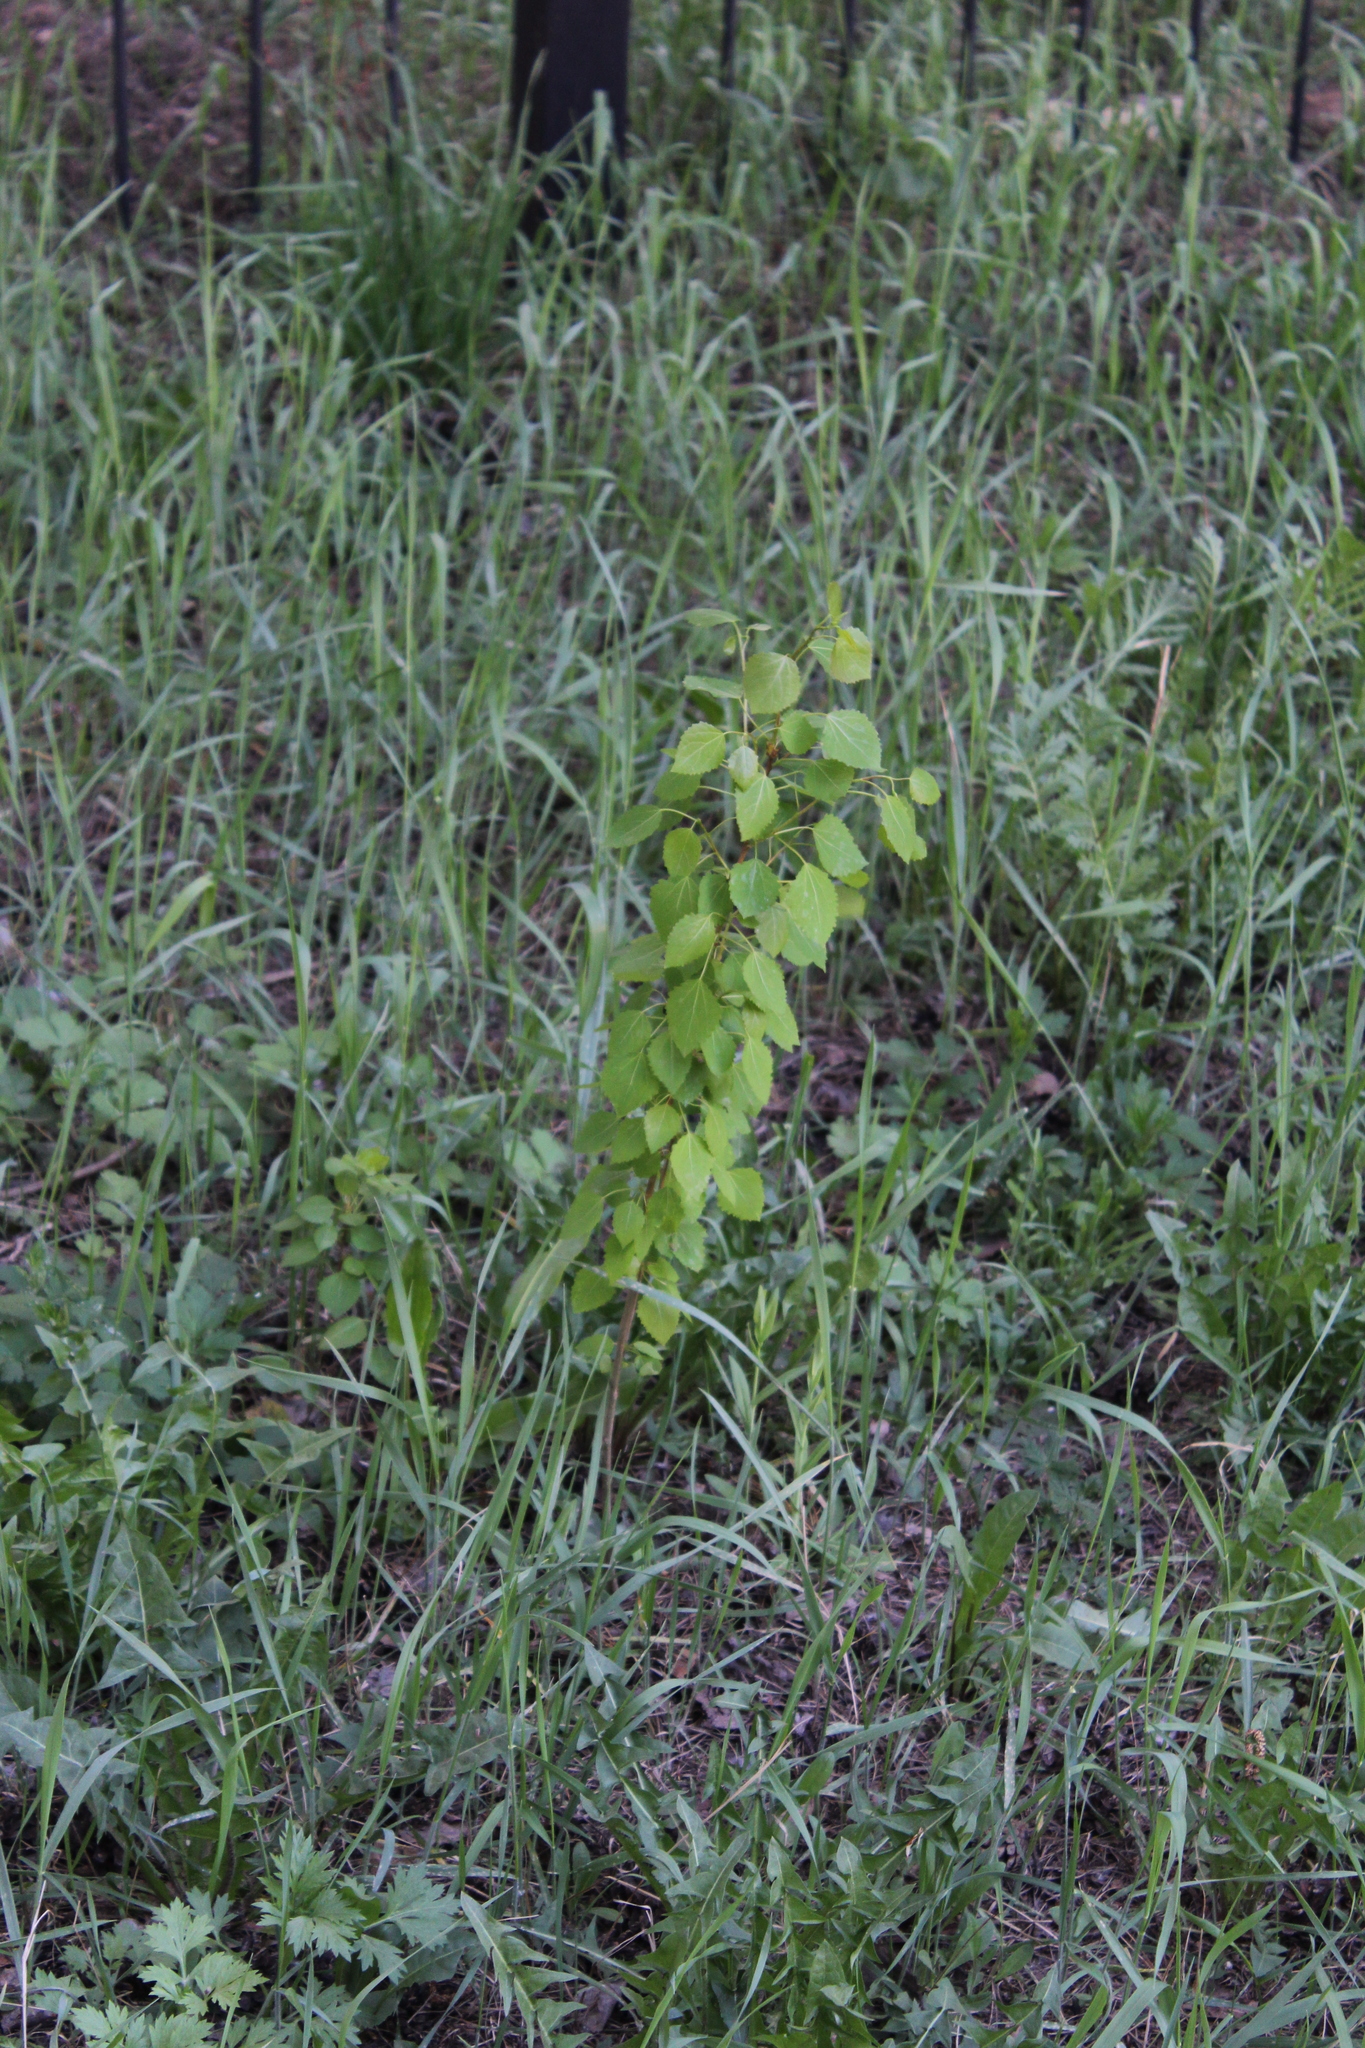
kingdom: Plantae
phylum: Tracheophyta
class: Magnoliopsida
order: Malpighiales
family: Salicaceae
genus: Populus
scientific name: Populus tremula
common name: European aspen
